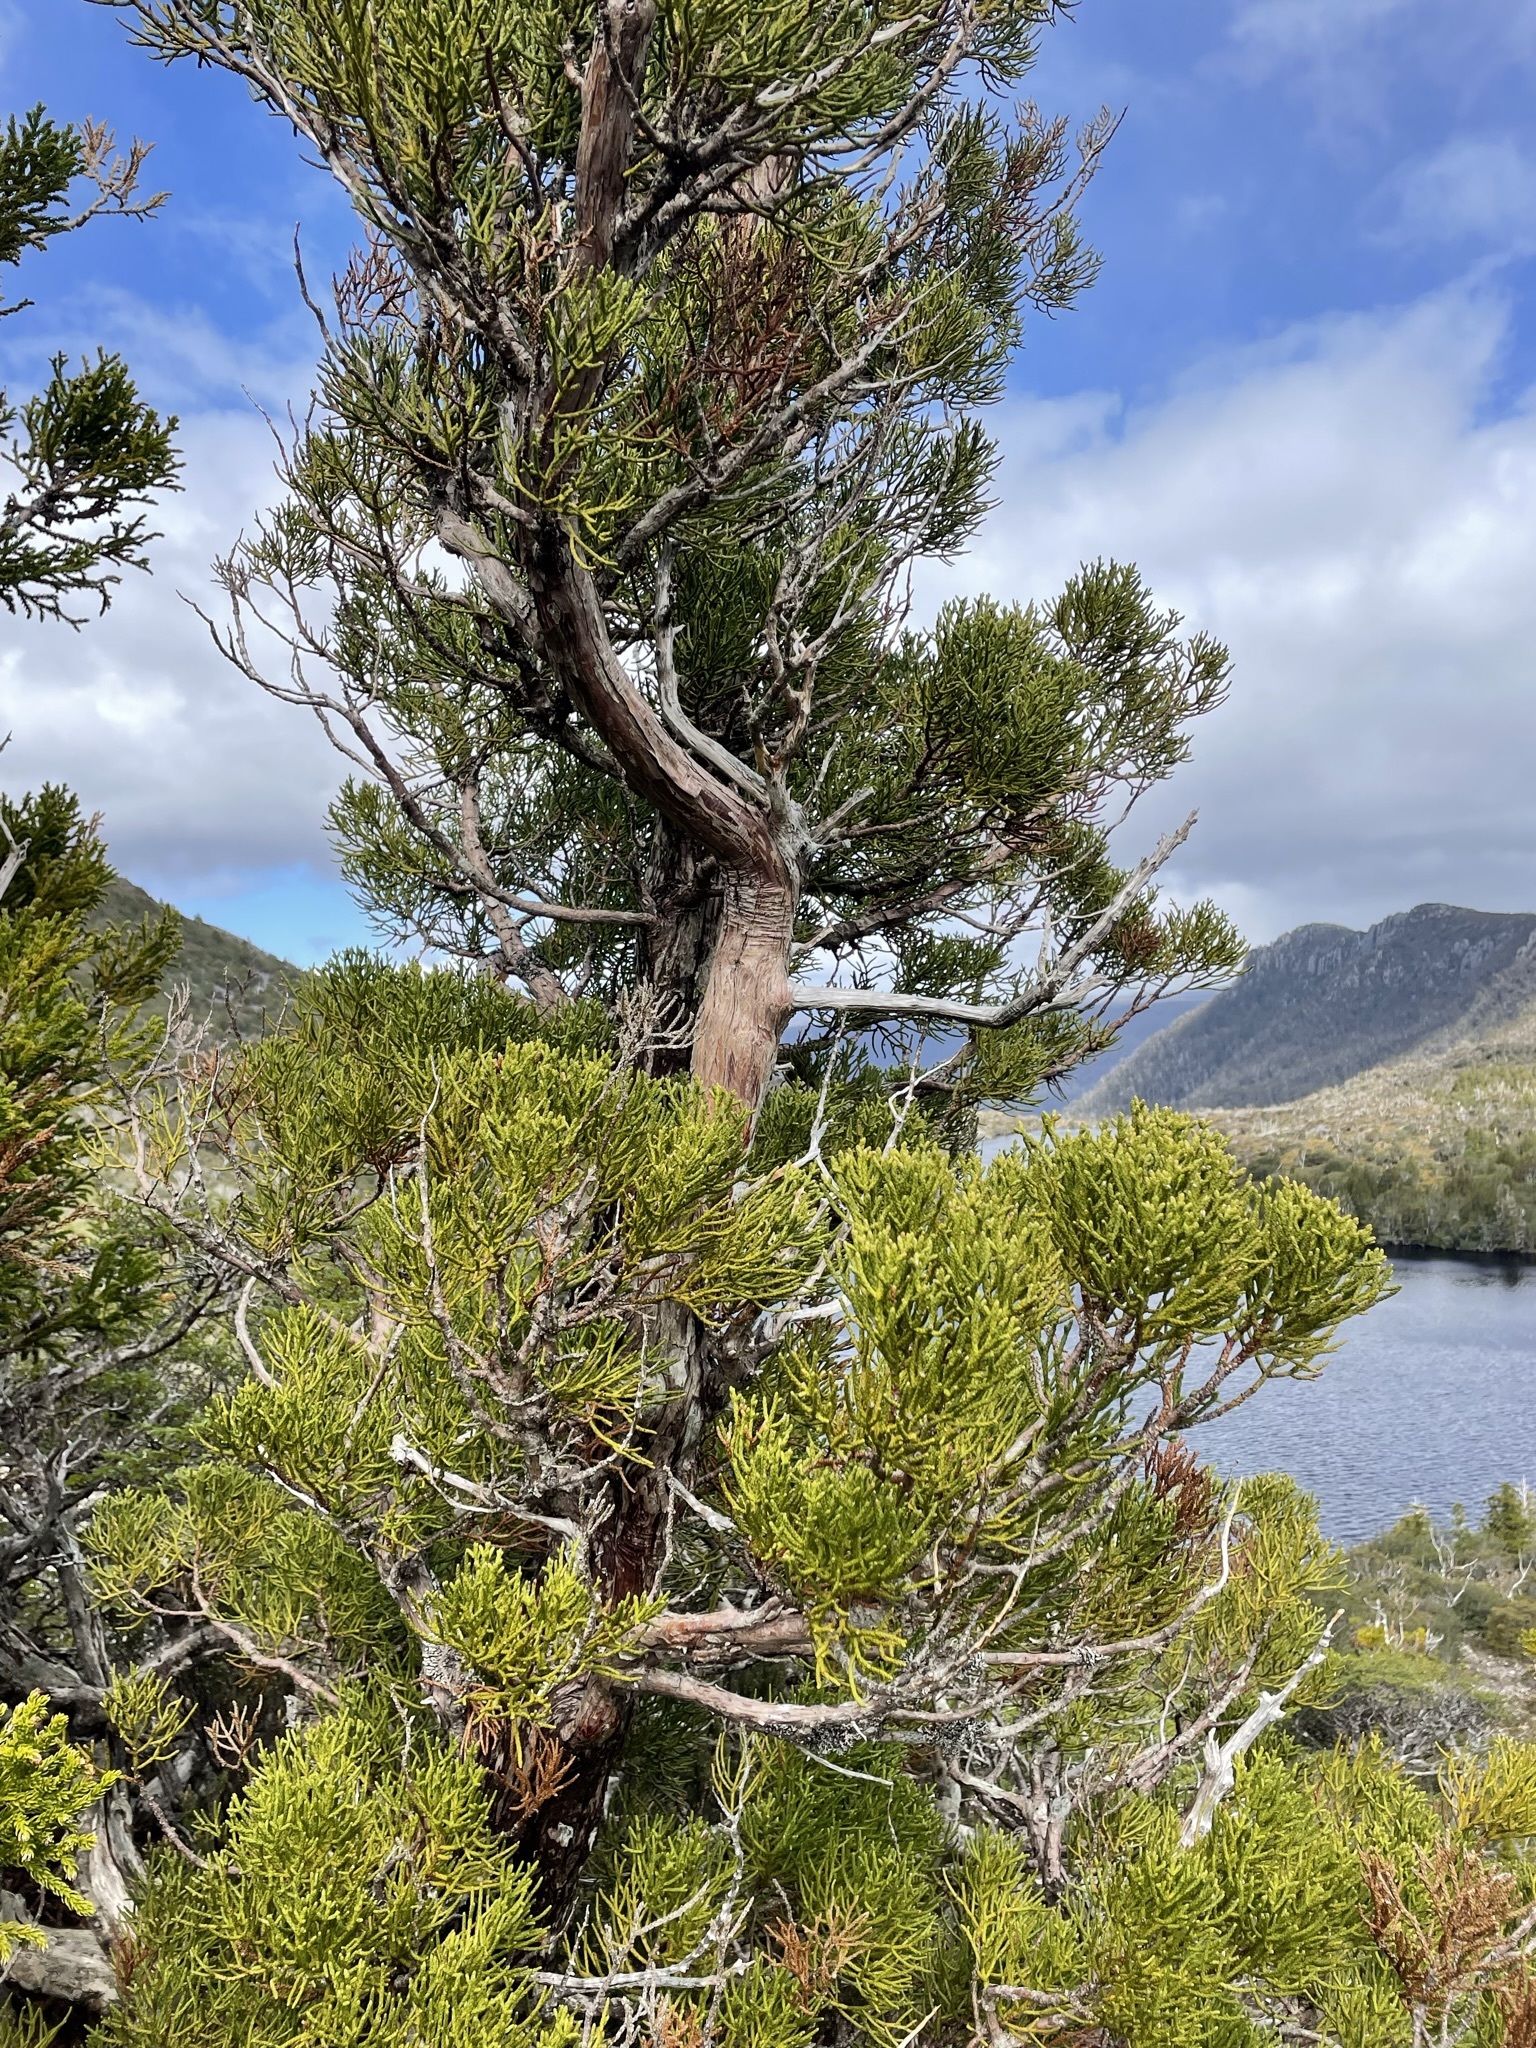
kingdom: Plantae
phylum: Tracheophyta
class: Pinopsida
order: Pinales
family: Cupressaceae
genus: Athrotaxis
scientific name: Athrotaxis cupressoides
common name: Tasmanian pencil pine
